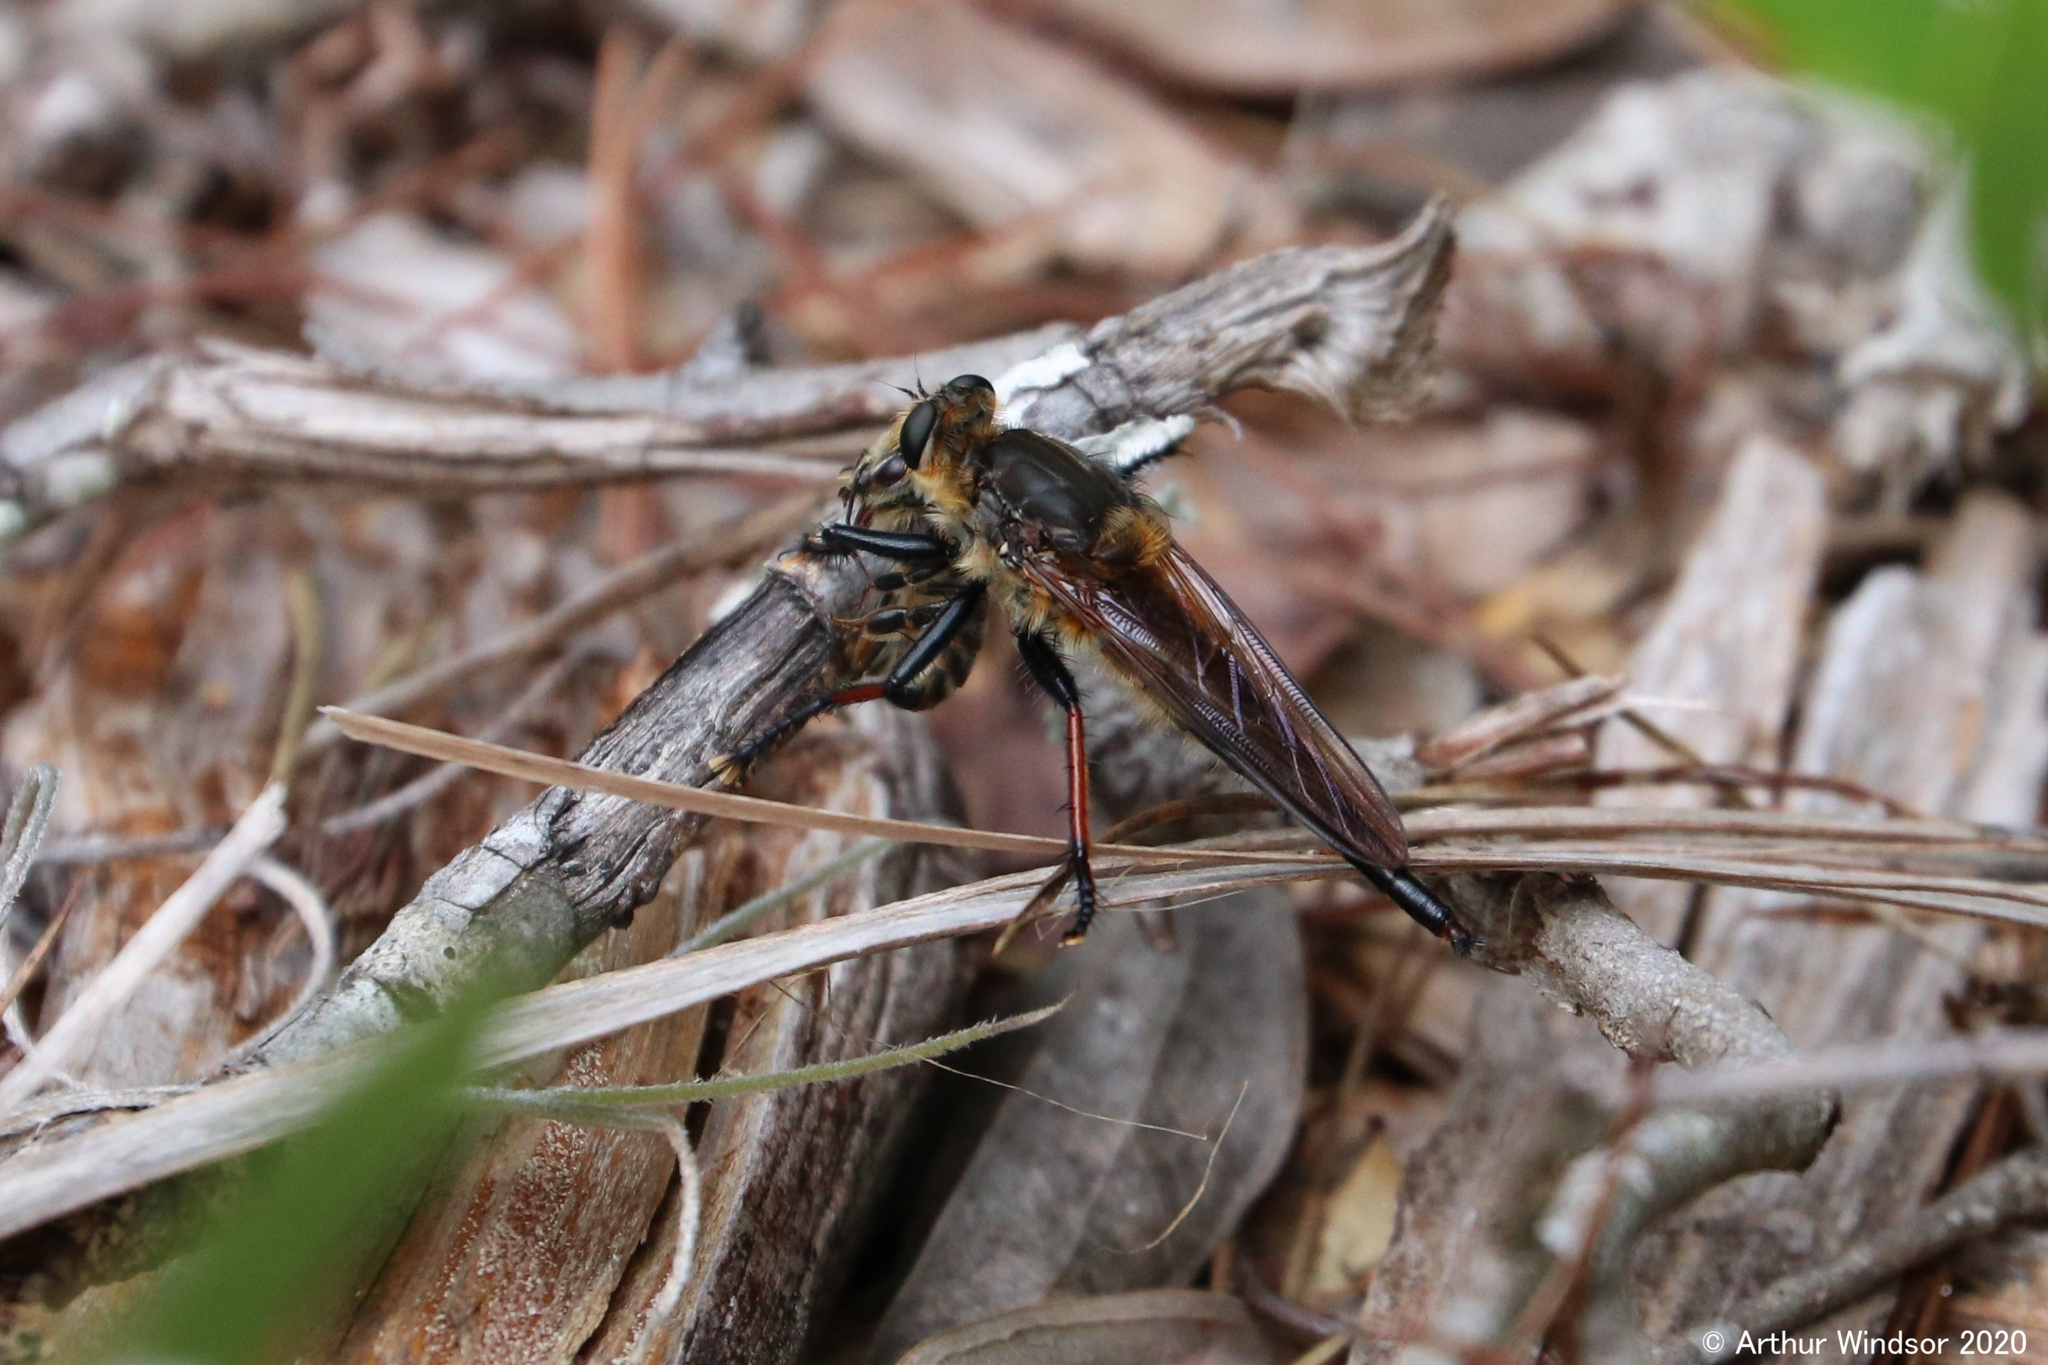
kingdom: Animalia
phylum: Arthropoda
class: Insecta
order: Diptera
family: Asilidae
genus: Proctacanthus
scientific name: Proctacanthus fulviventris
